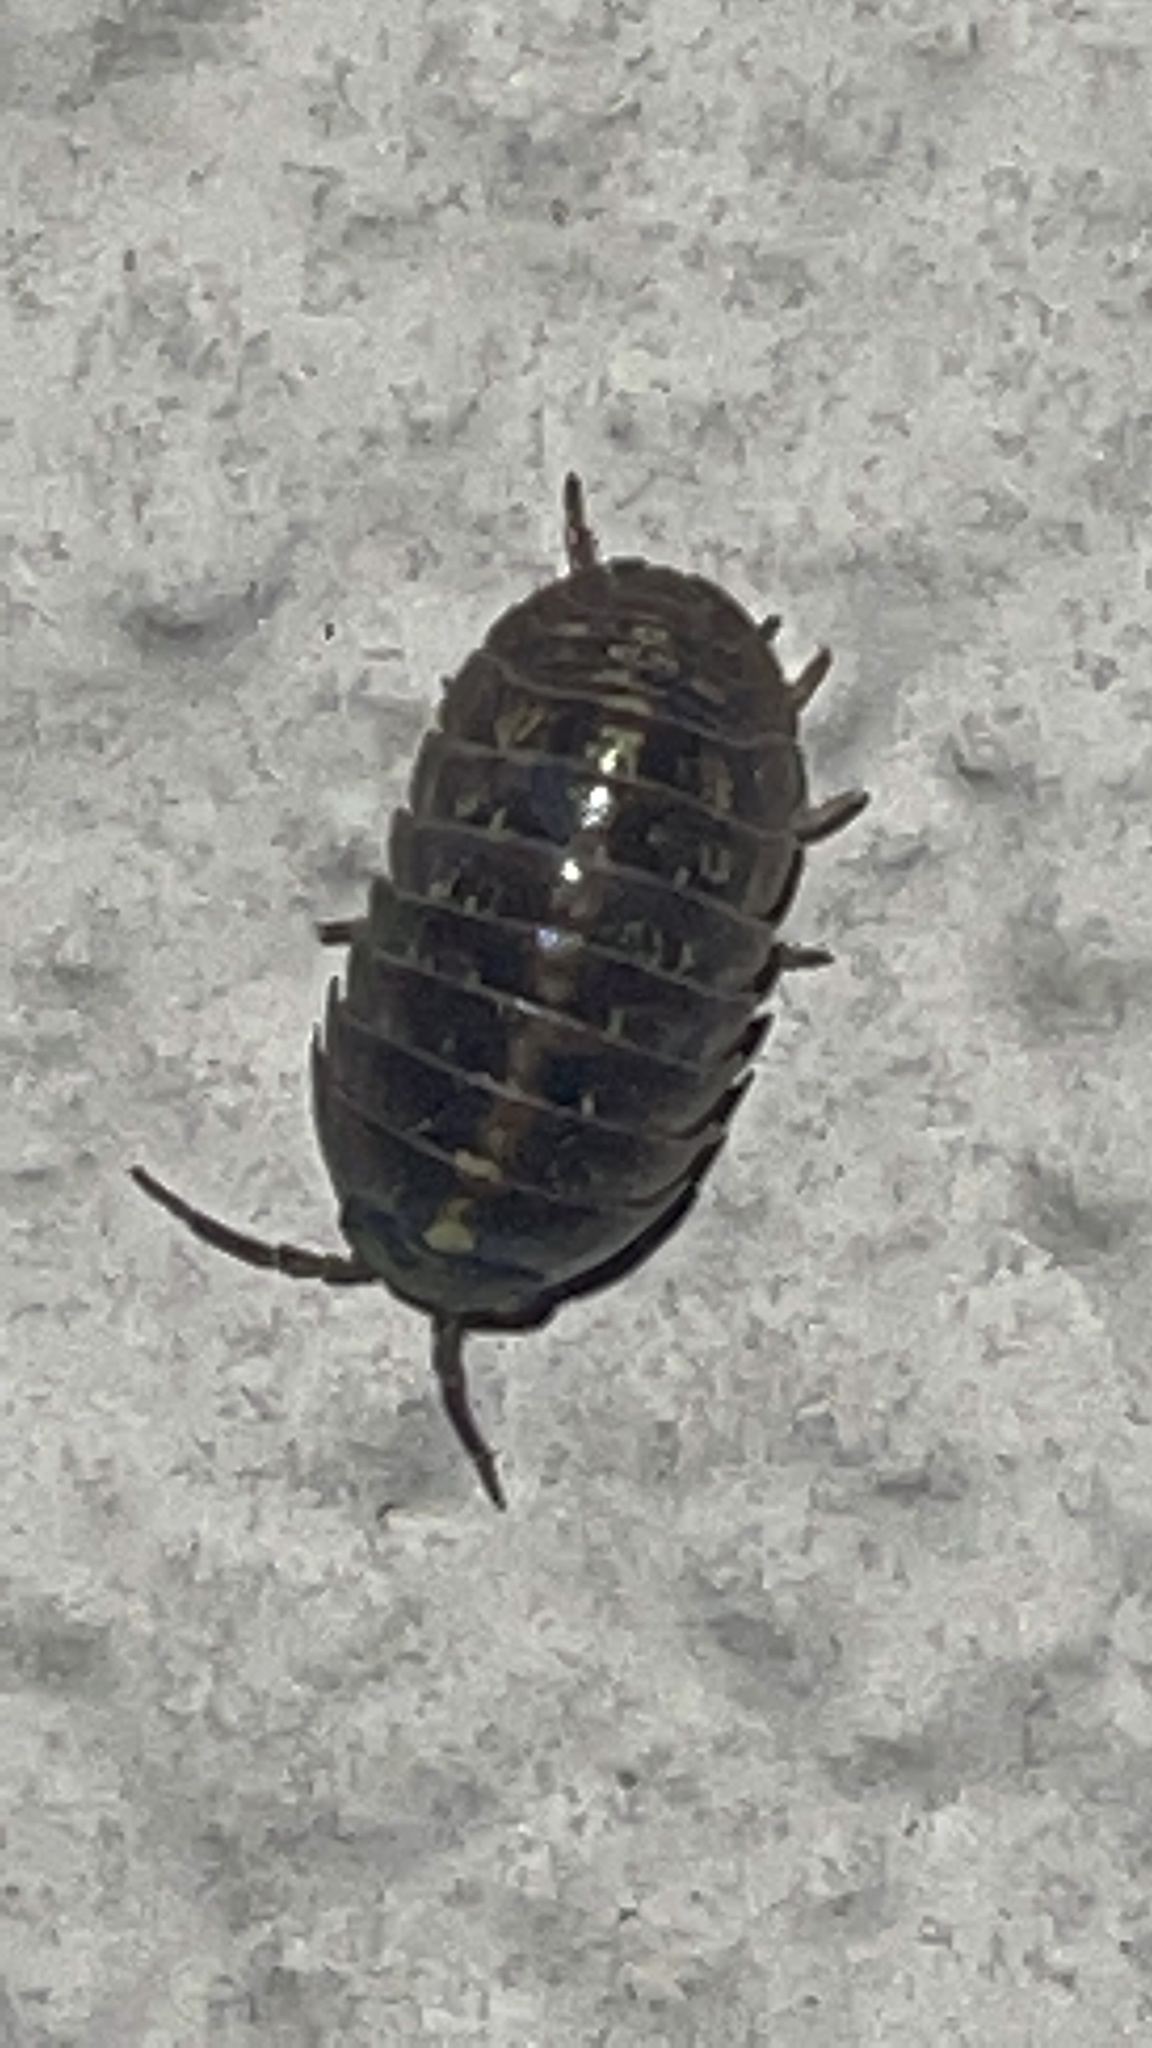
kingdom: Animalia
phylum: Arthropoda
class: Malacostraca
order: Isopoda
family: Armadillidiidae
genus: Armadillidium
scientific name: Armadillidium vulgare
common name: Common pill woodlouse
